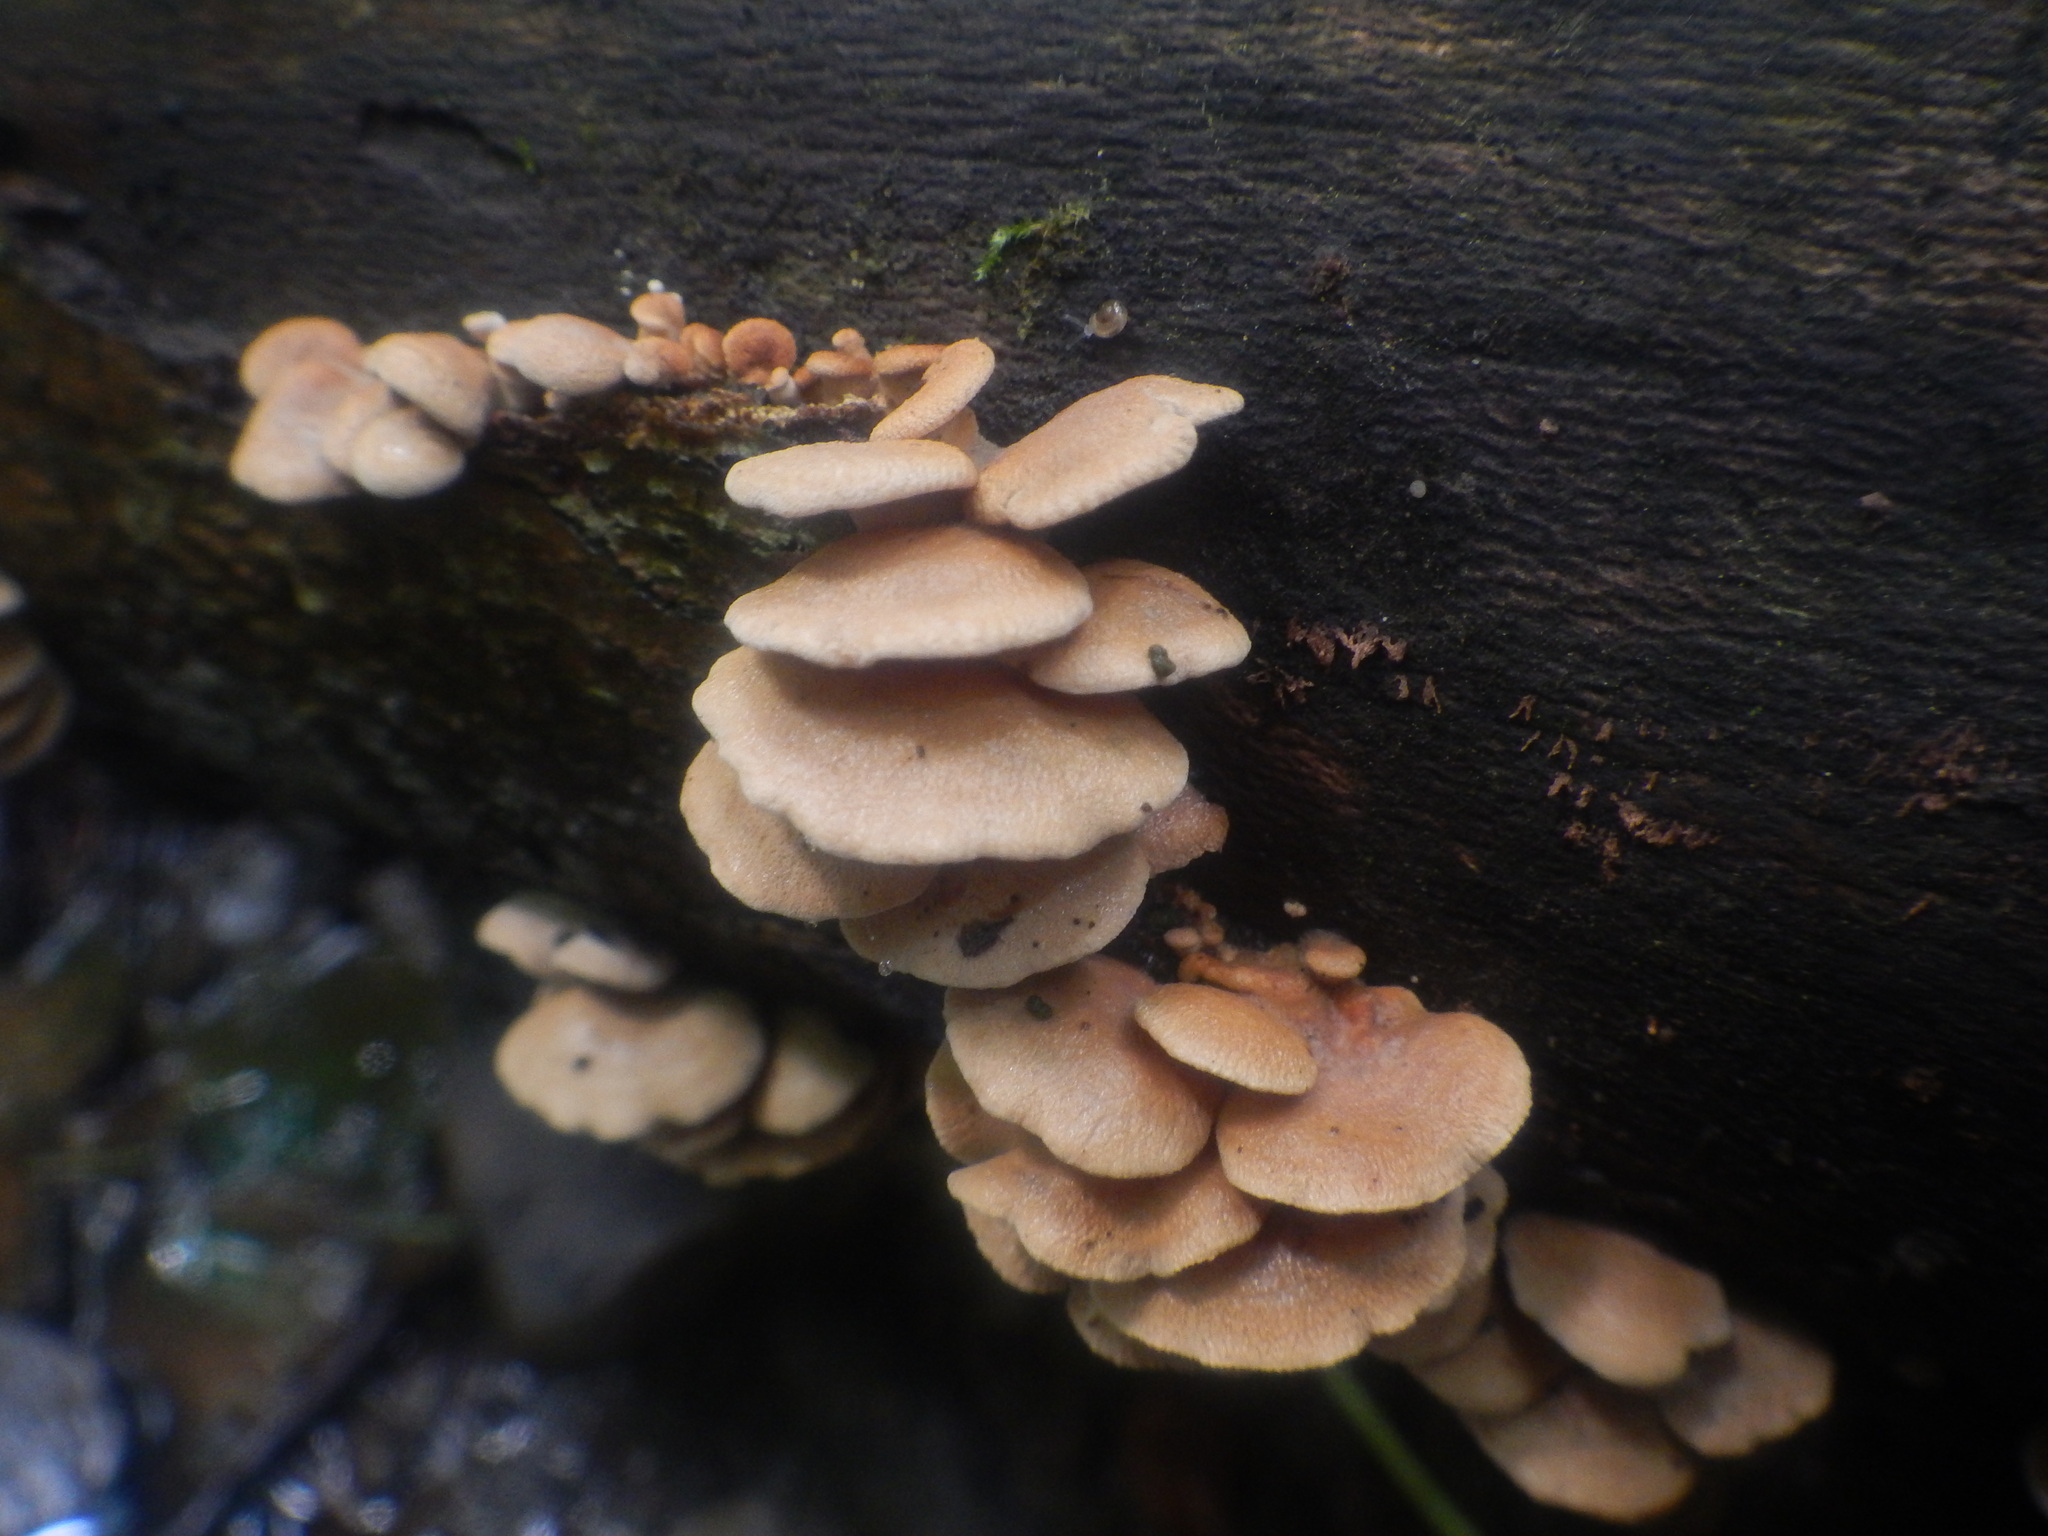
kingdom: Fungi
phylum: Basidiomycota
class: Agaricomycetes
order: Agaricales
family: Mycenaceae
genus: Panellus
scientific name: Panellus stipticus
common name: Bitter oysterling
